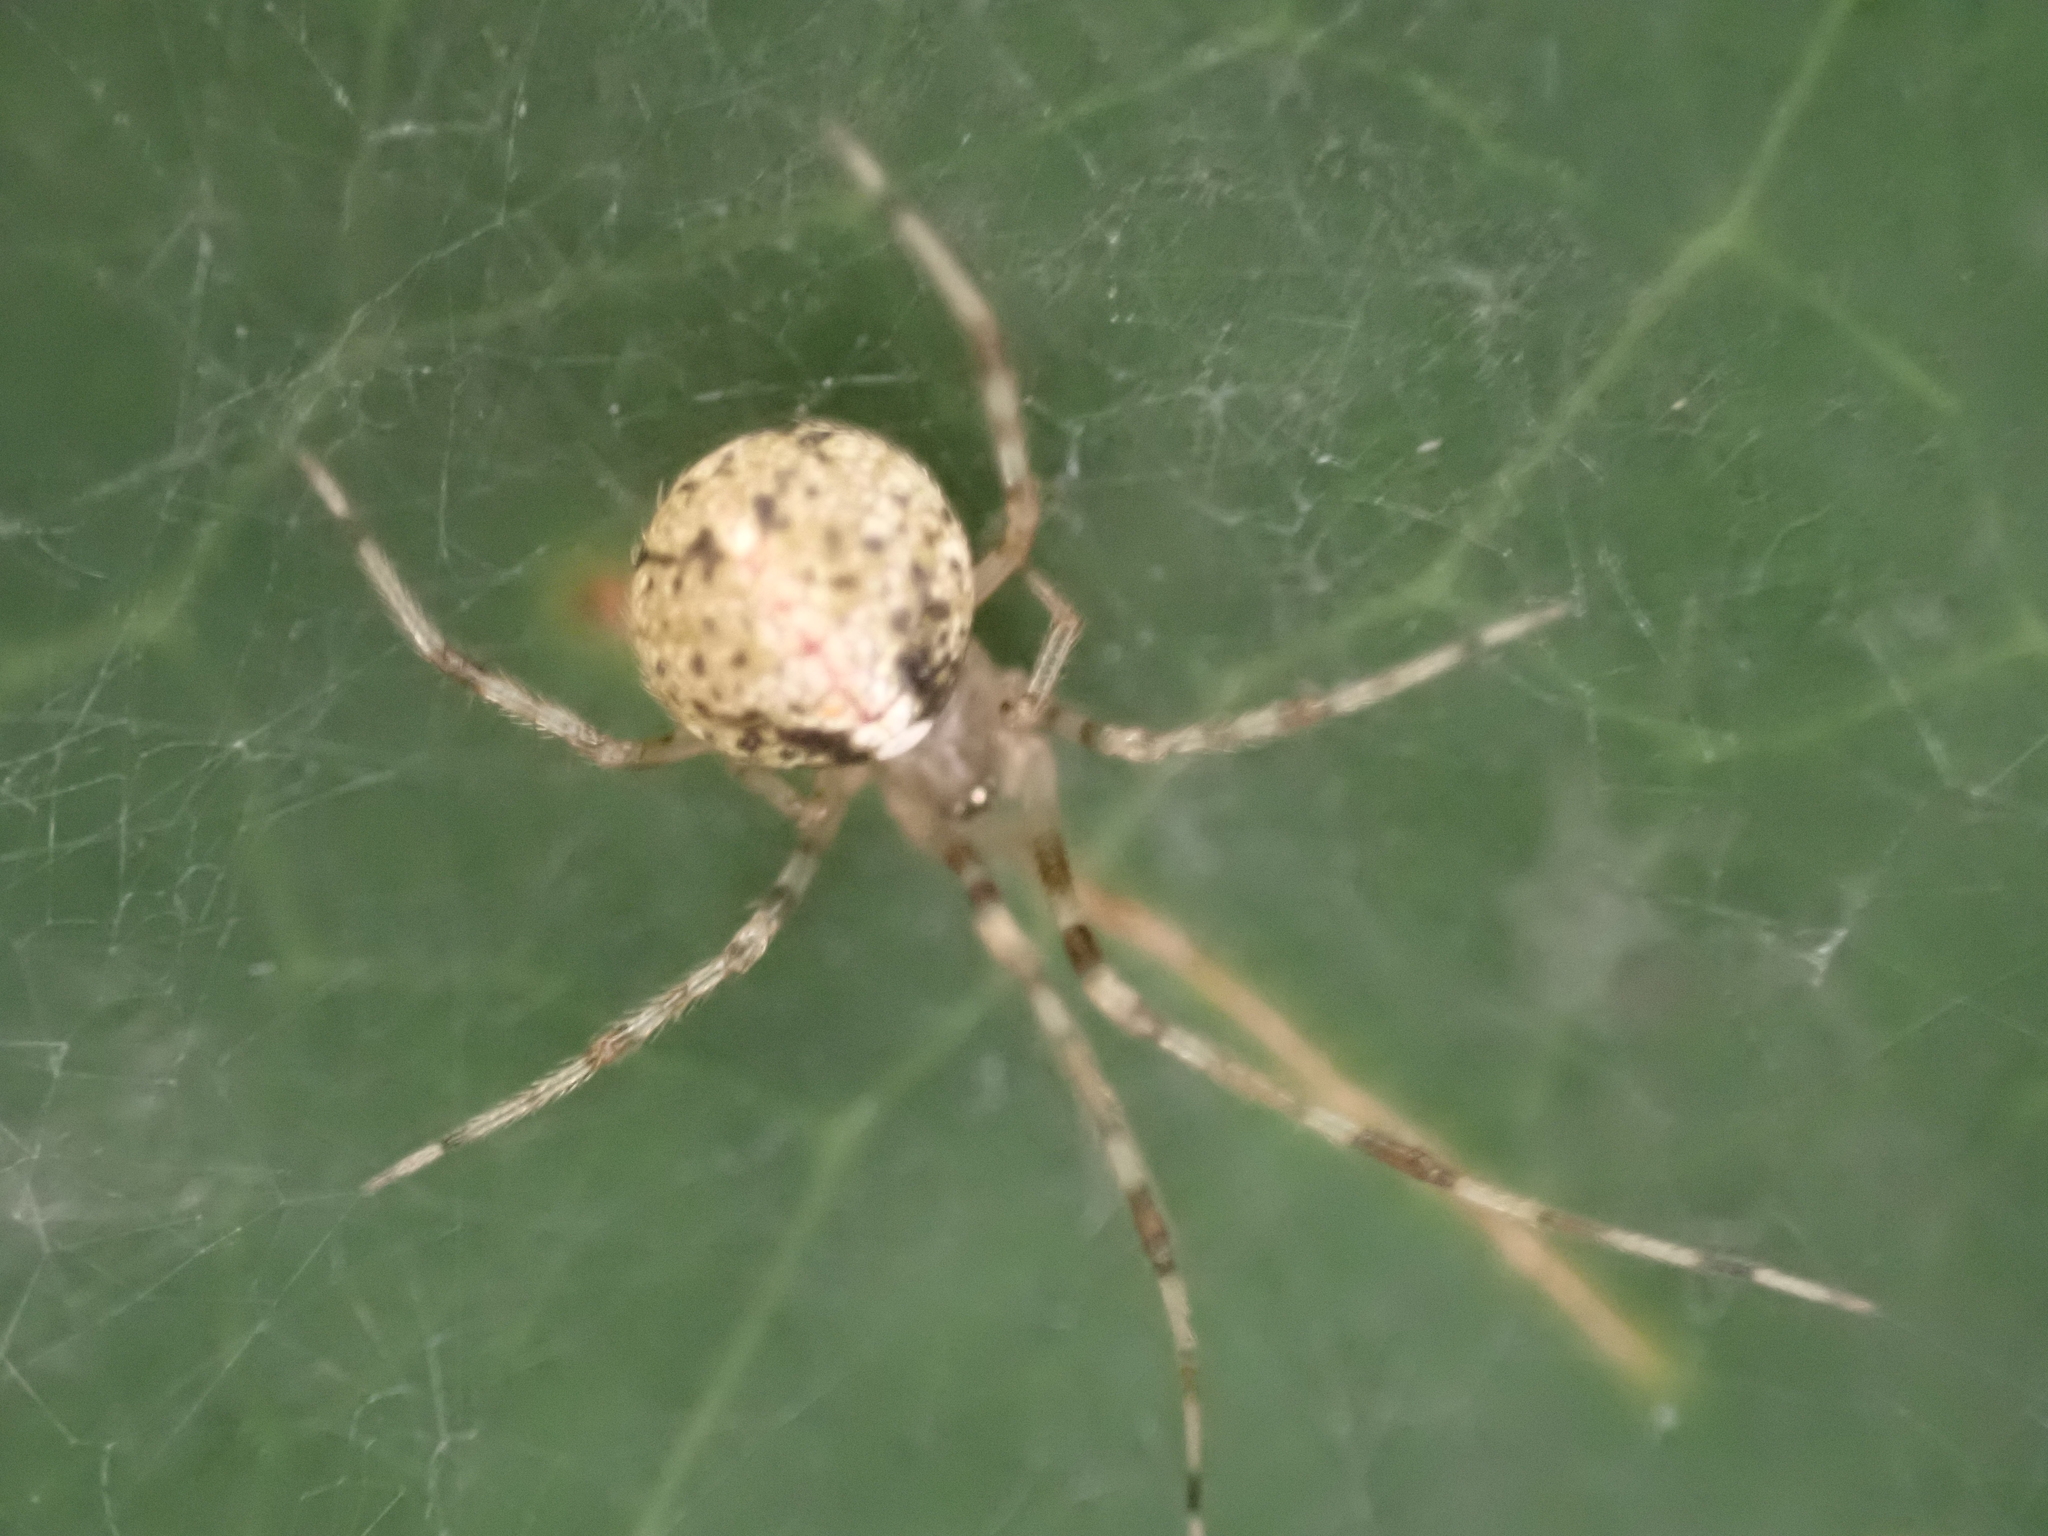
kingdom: Animalia
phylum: Arthropoda
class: Arachnida
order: Araneae
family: Theridiidae
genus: Yunohamella
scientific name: Yunohamella lyrica
